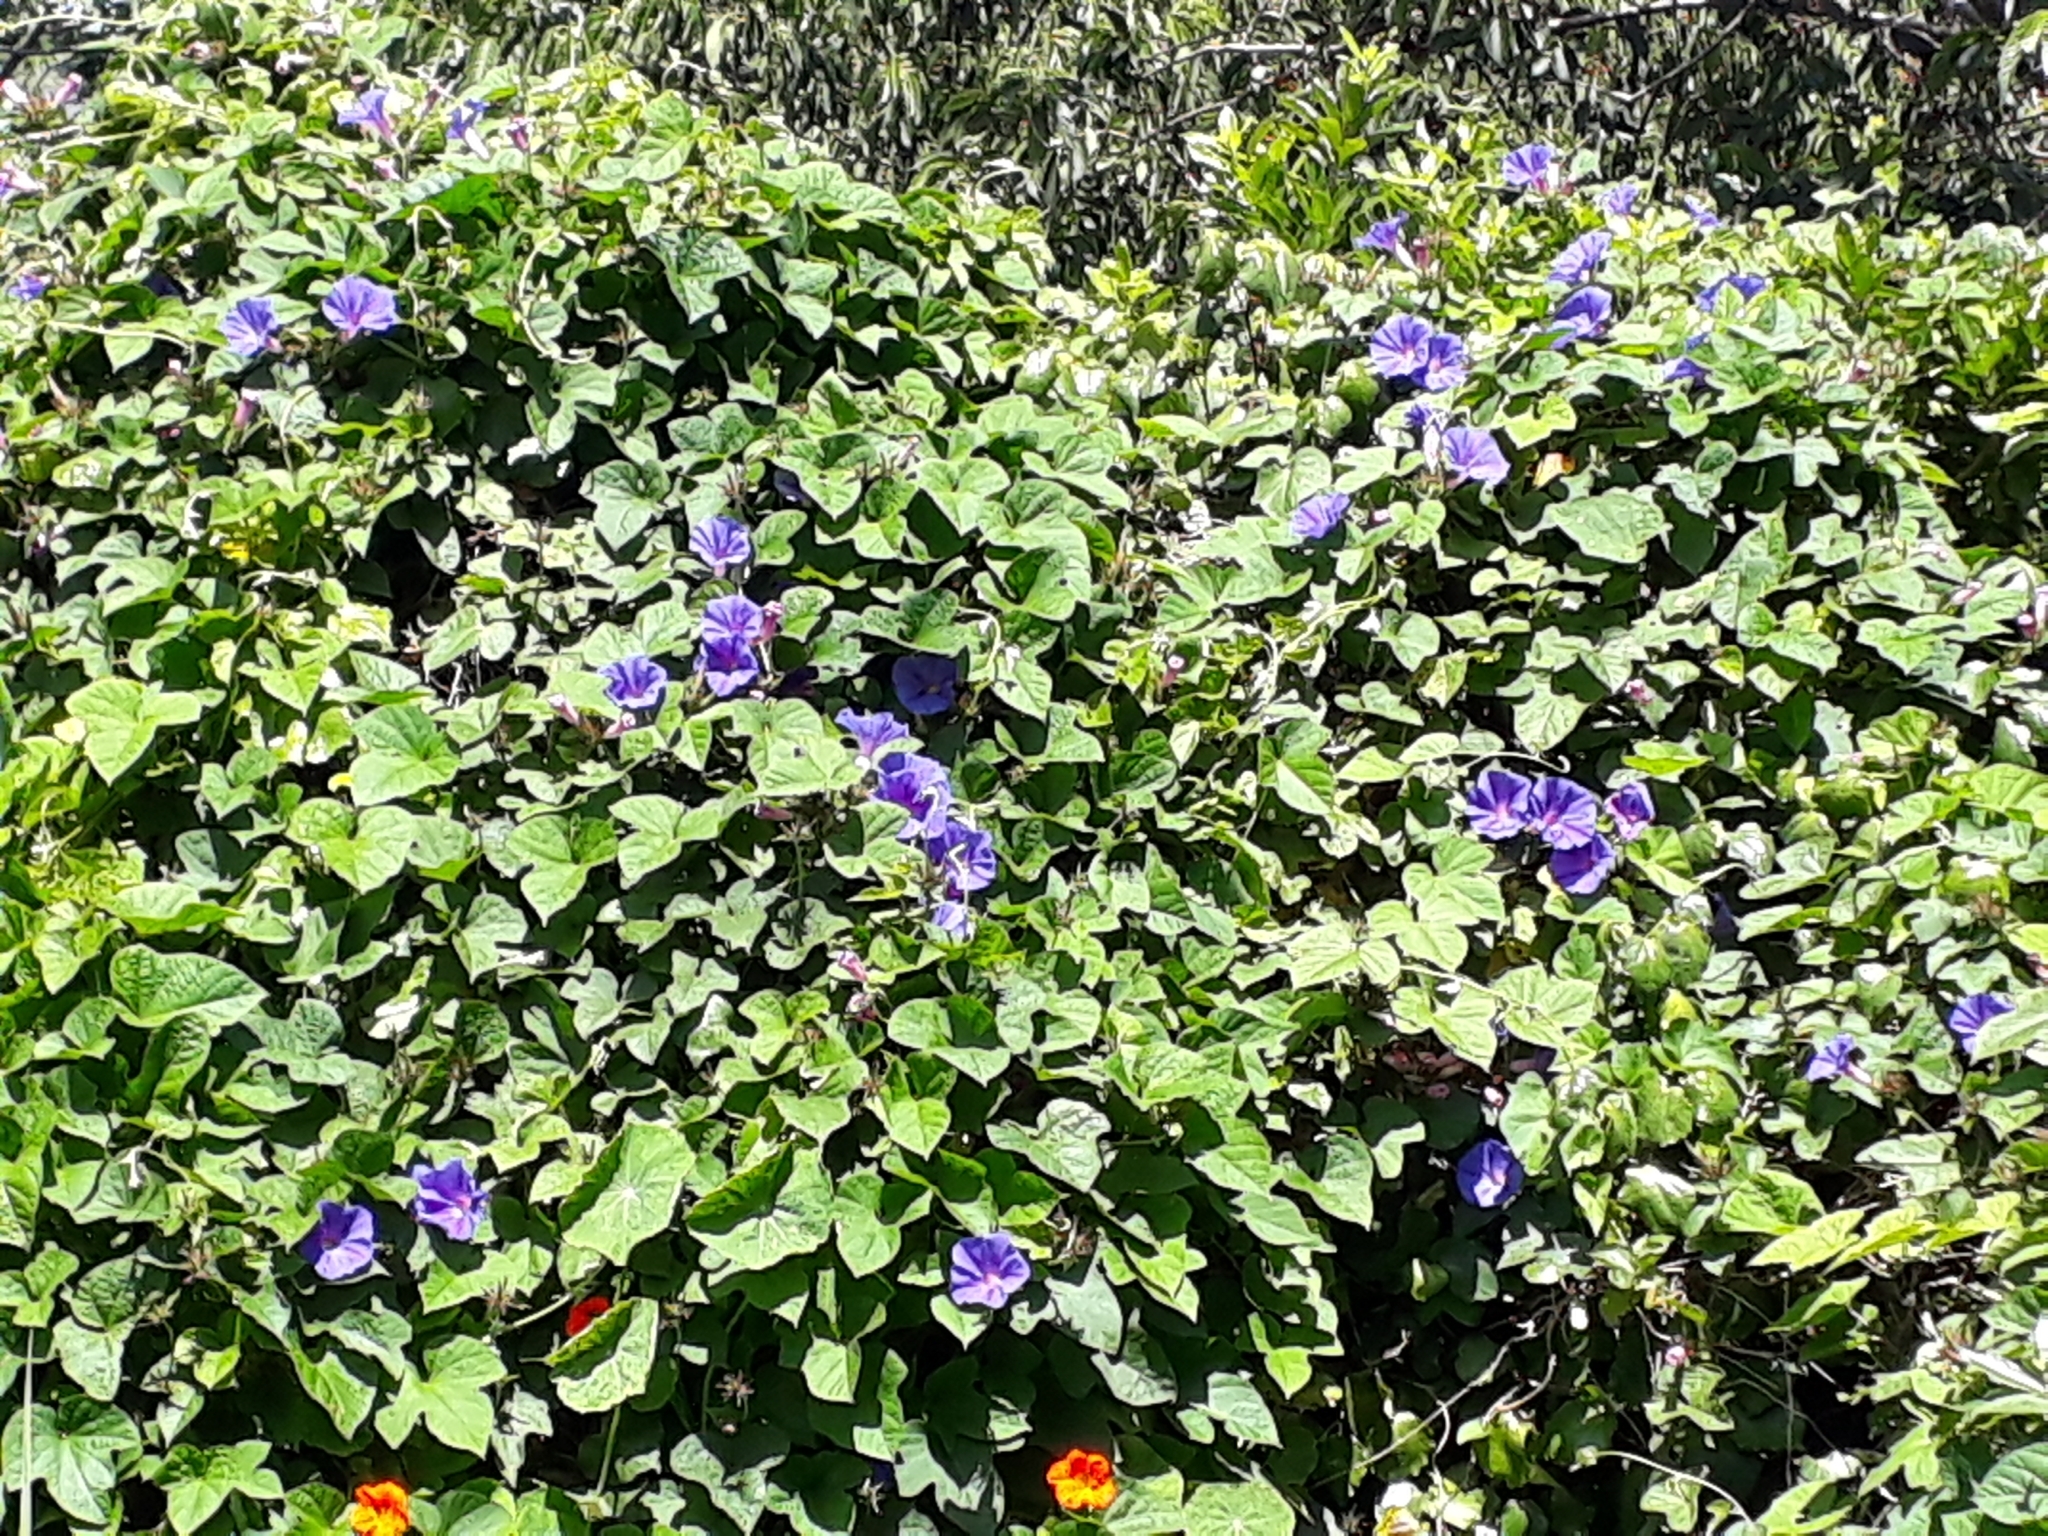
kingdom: Plantae
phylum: Tracheophyta
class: Magnoliopsida
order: Solanales
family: Convolvulaceae
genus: Ipomoea
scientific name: Ipomoea indica
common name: Blue dawnflower
